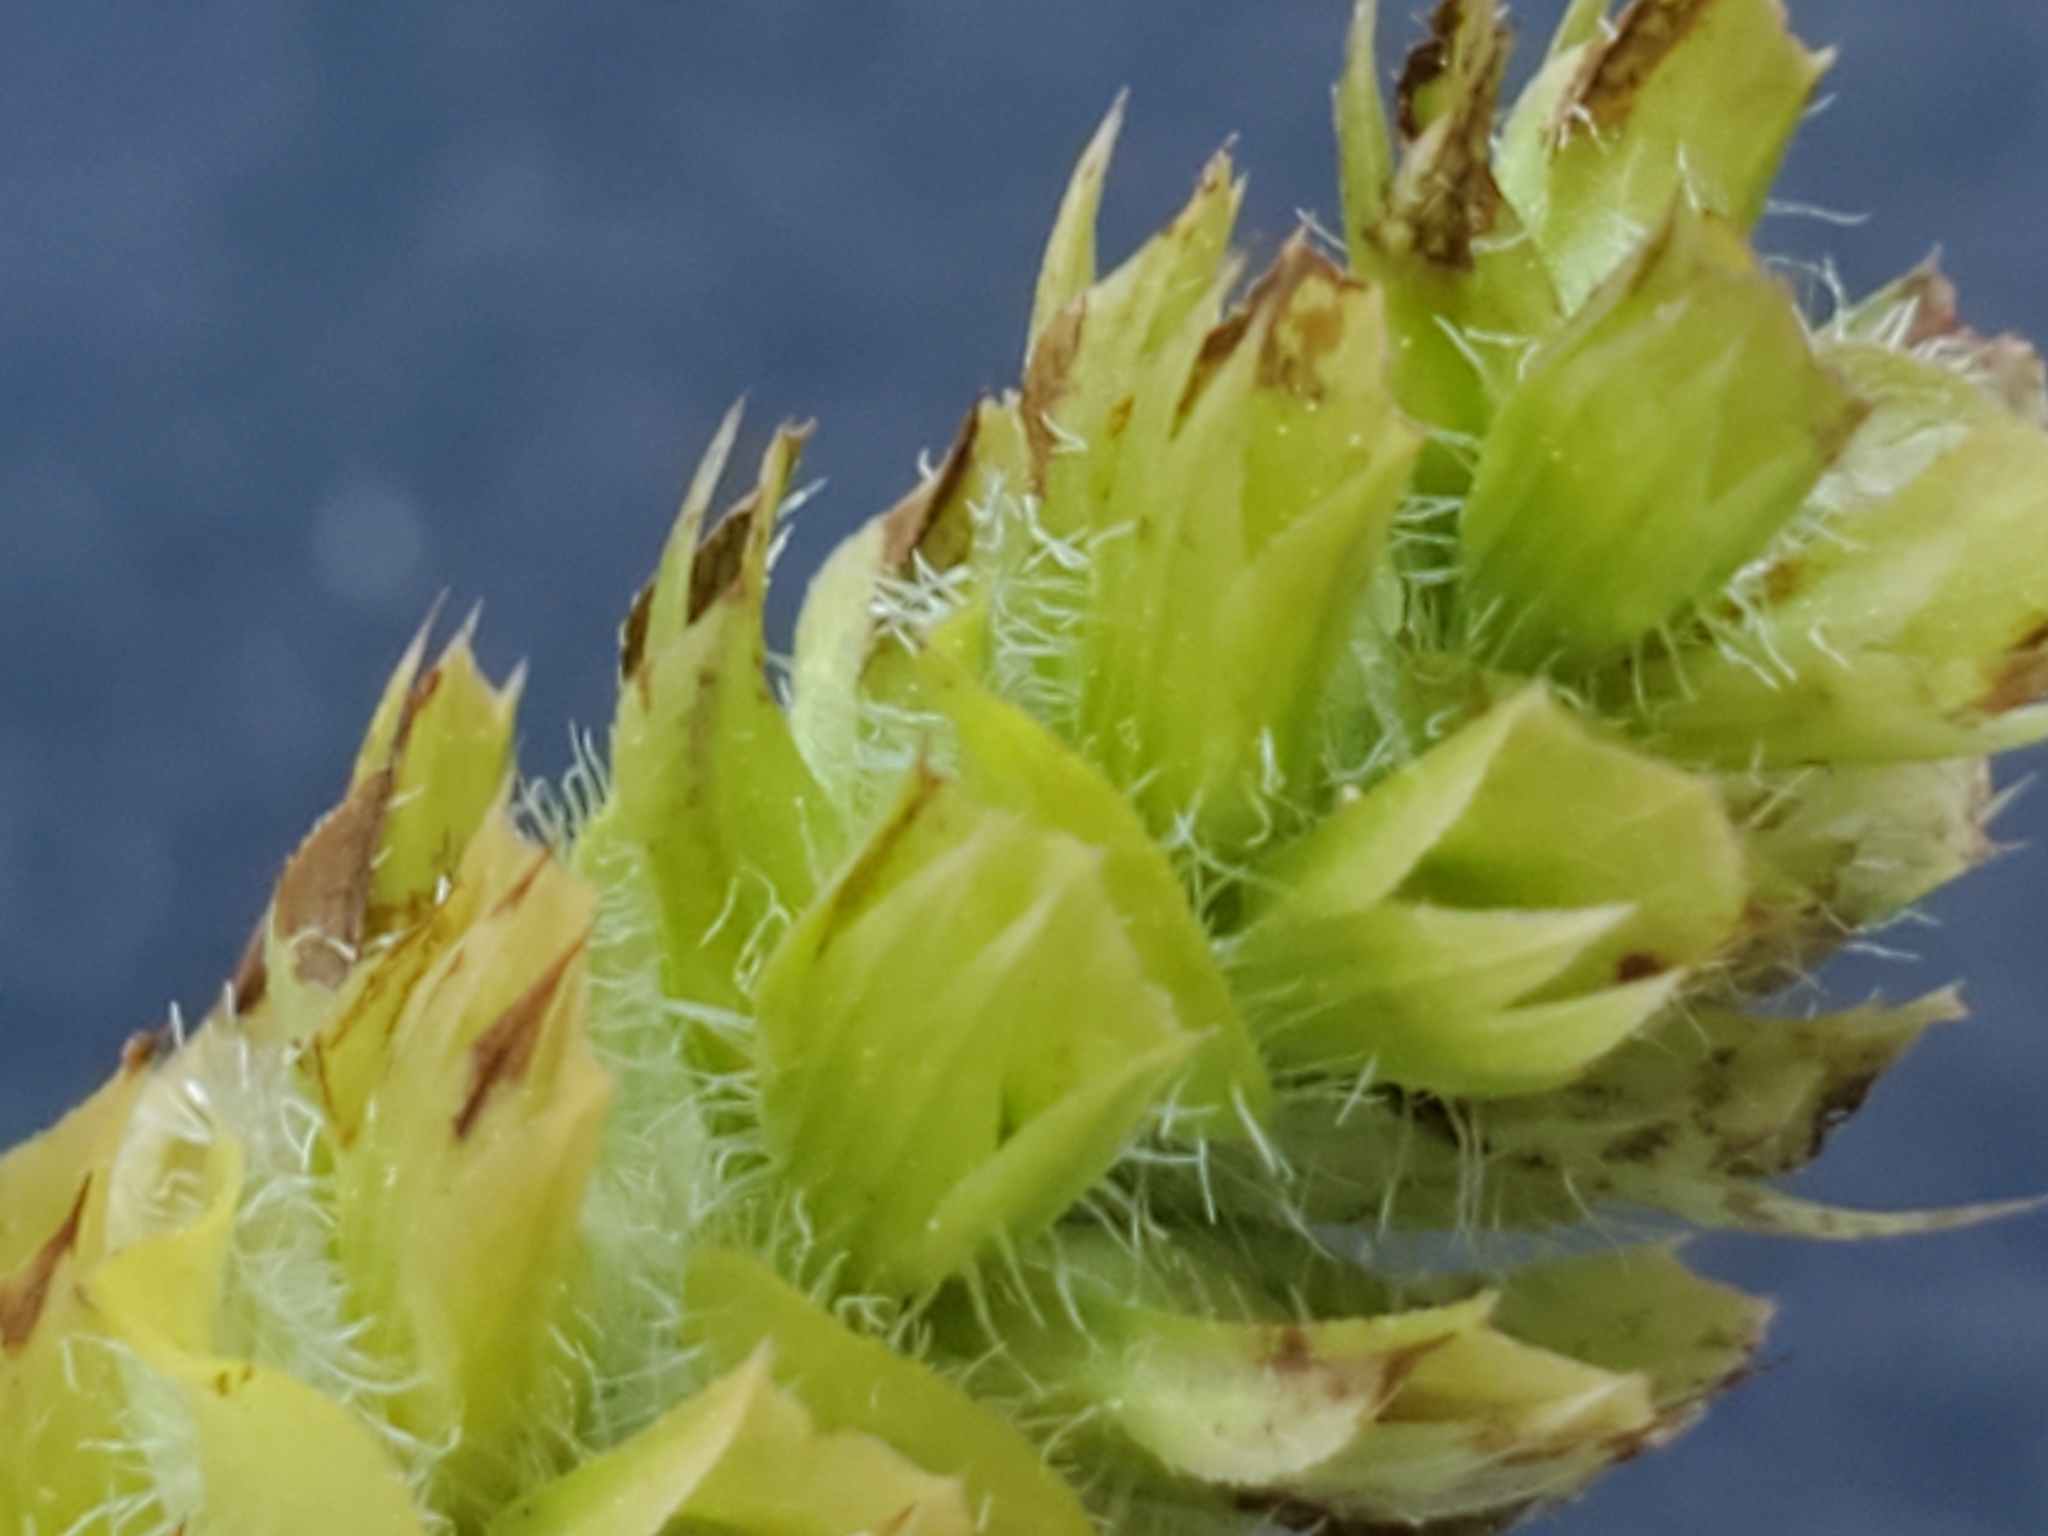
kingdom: Plantae
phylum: Tracheophyta
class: Magnoliopsida
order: Lamiales
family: Lamiaceae
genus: Prunella
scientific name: Prunella vulgaris
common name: Heal-all
